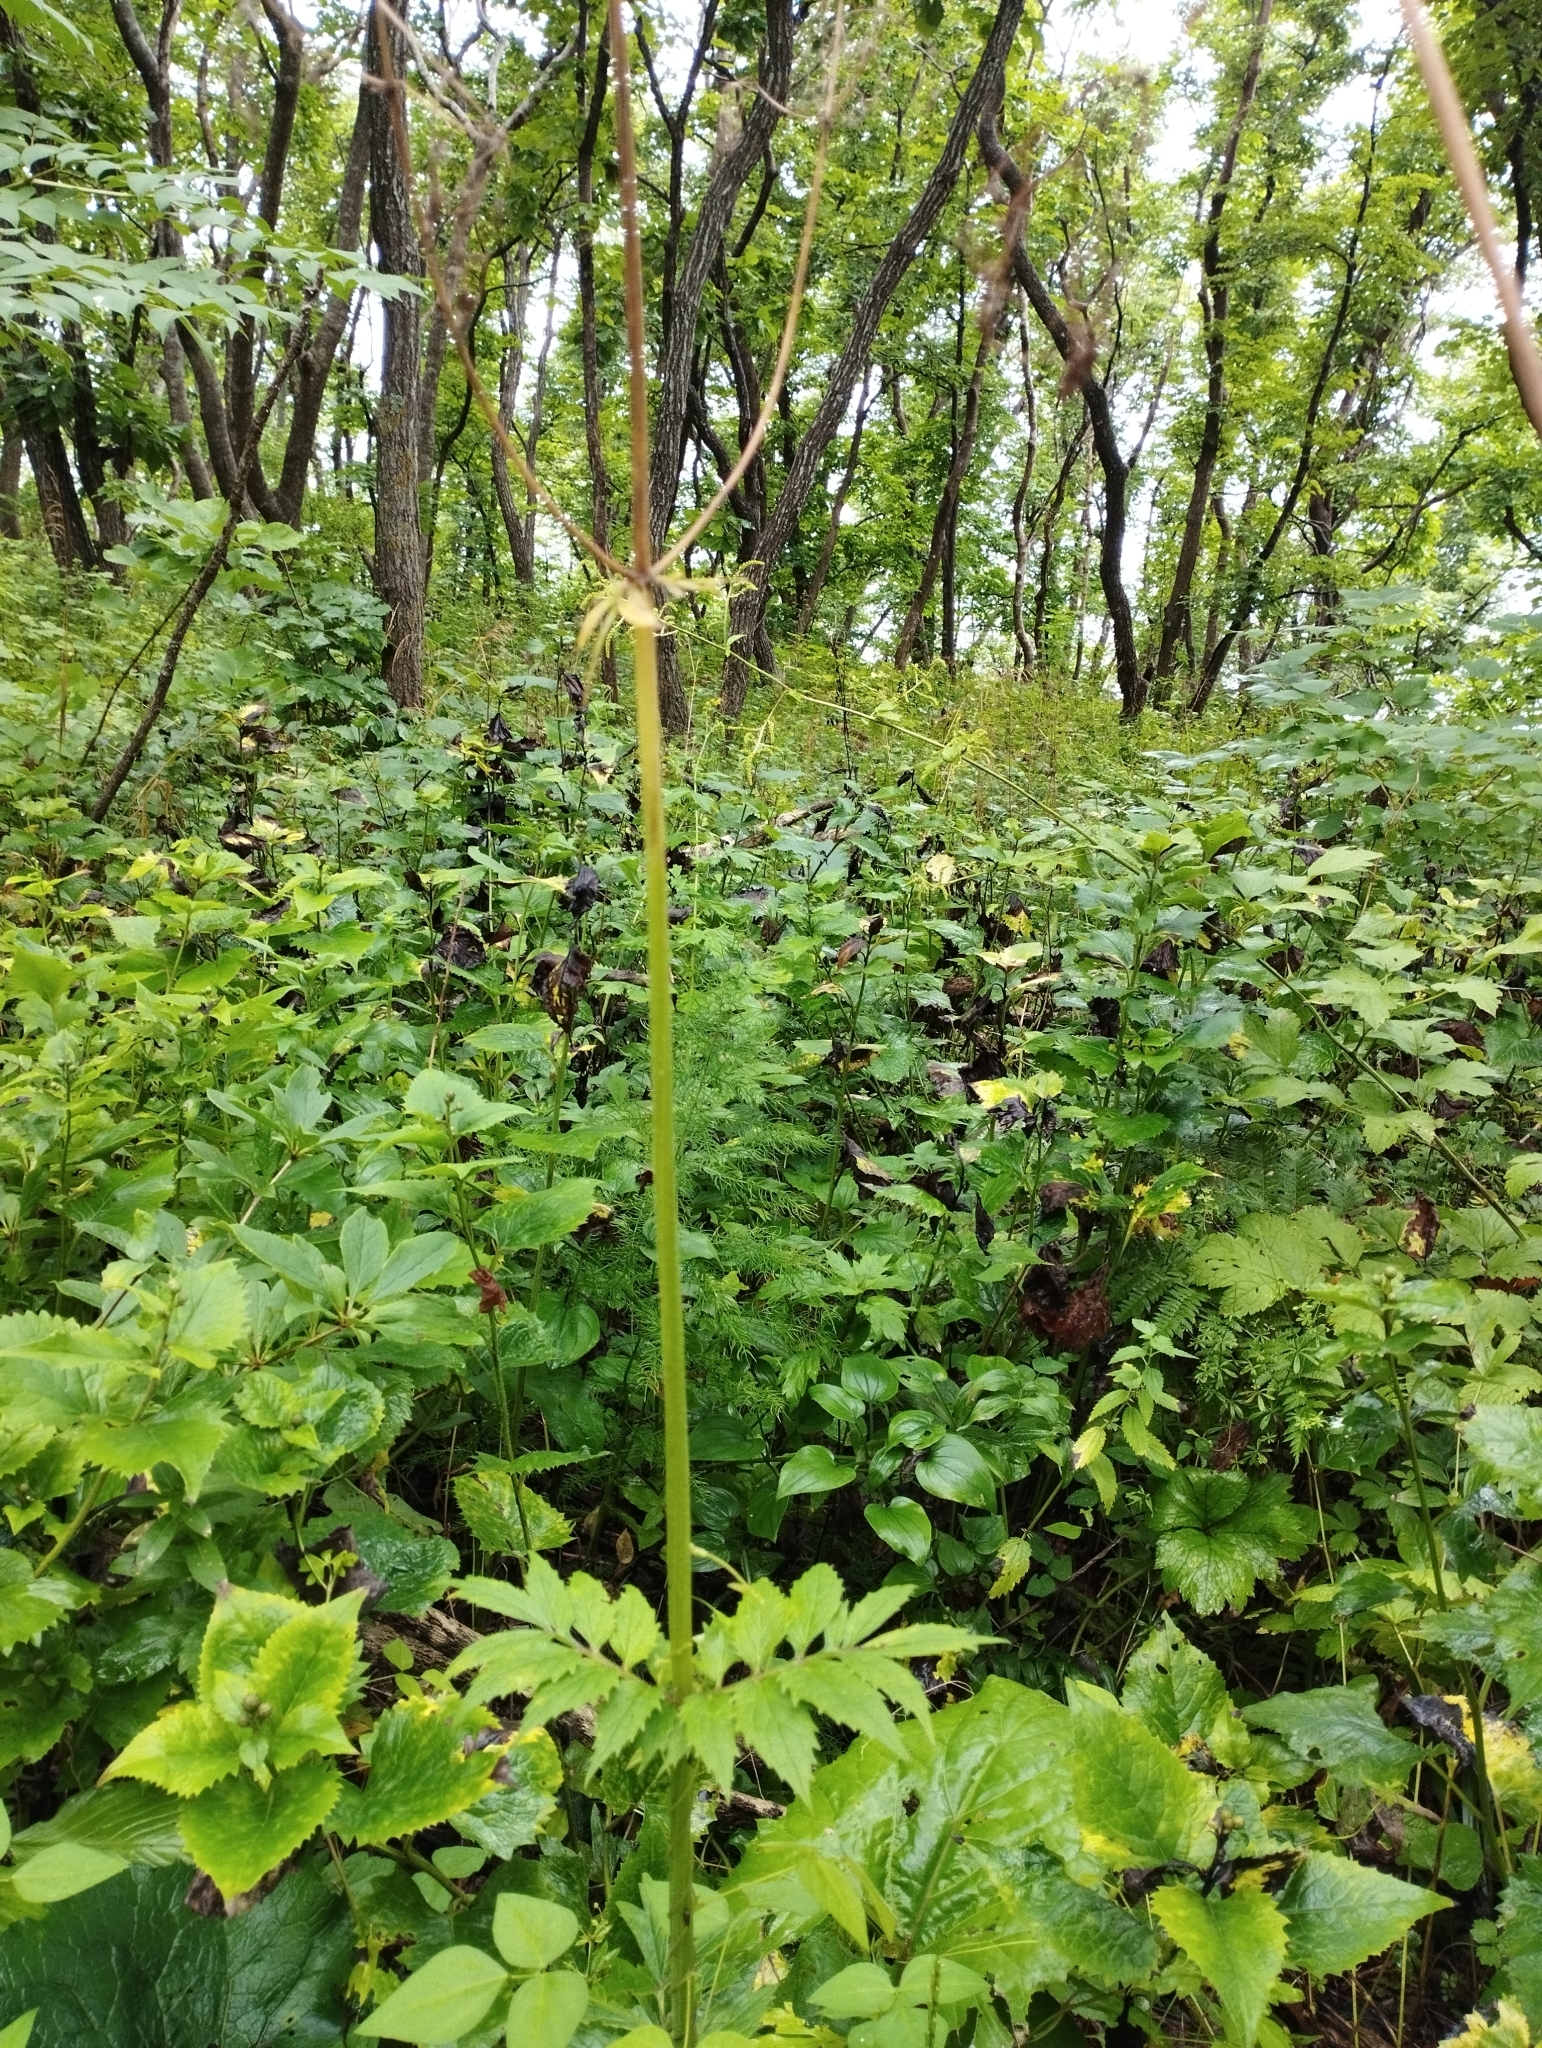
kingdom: Plantae
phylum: Tracheophyta
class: Magnoliopsida
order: Dipsacales
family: Caprifoliaceae
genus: Valeriana
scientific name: Valeriana fauriei
